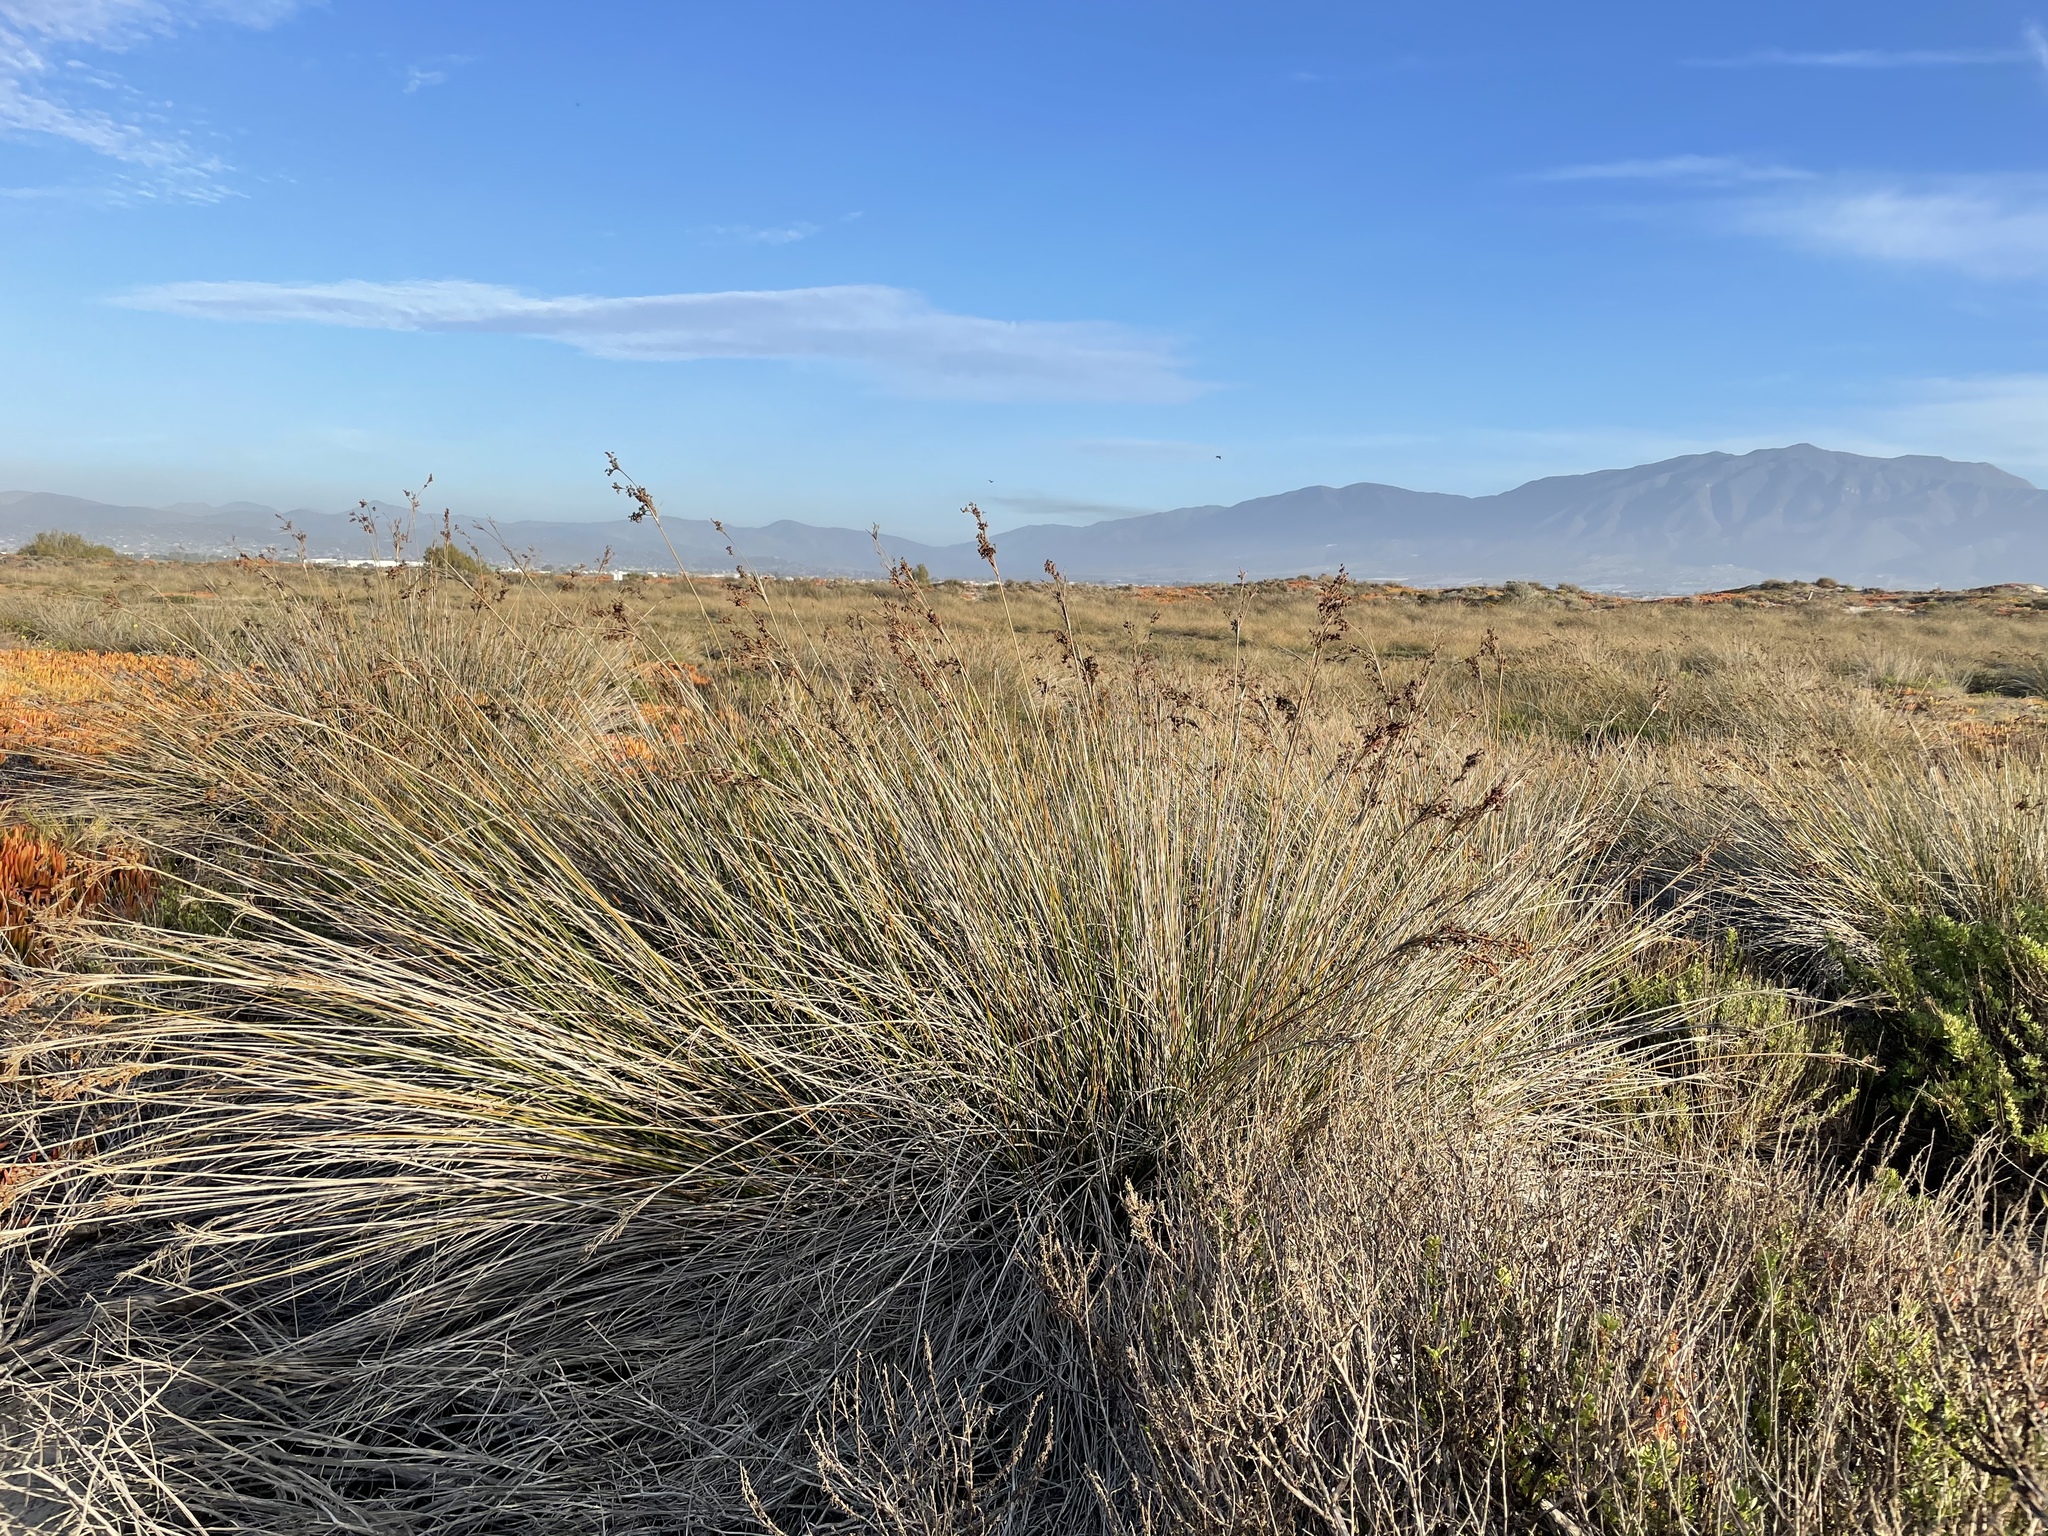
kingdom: Plantae
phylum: Tracheophyta
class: Liliopsida
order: Poales
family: Juncaceae
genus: Juncus
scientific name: Juncus acutus
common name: Sharp rush
